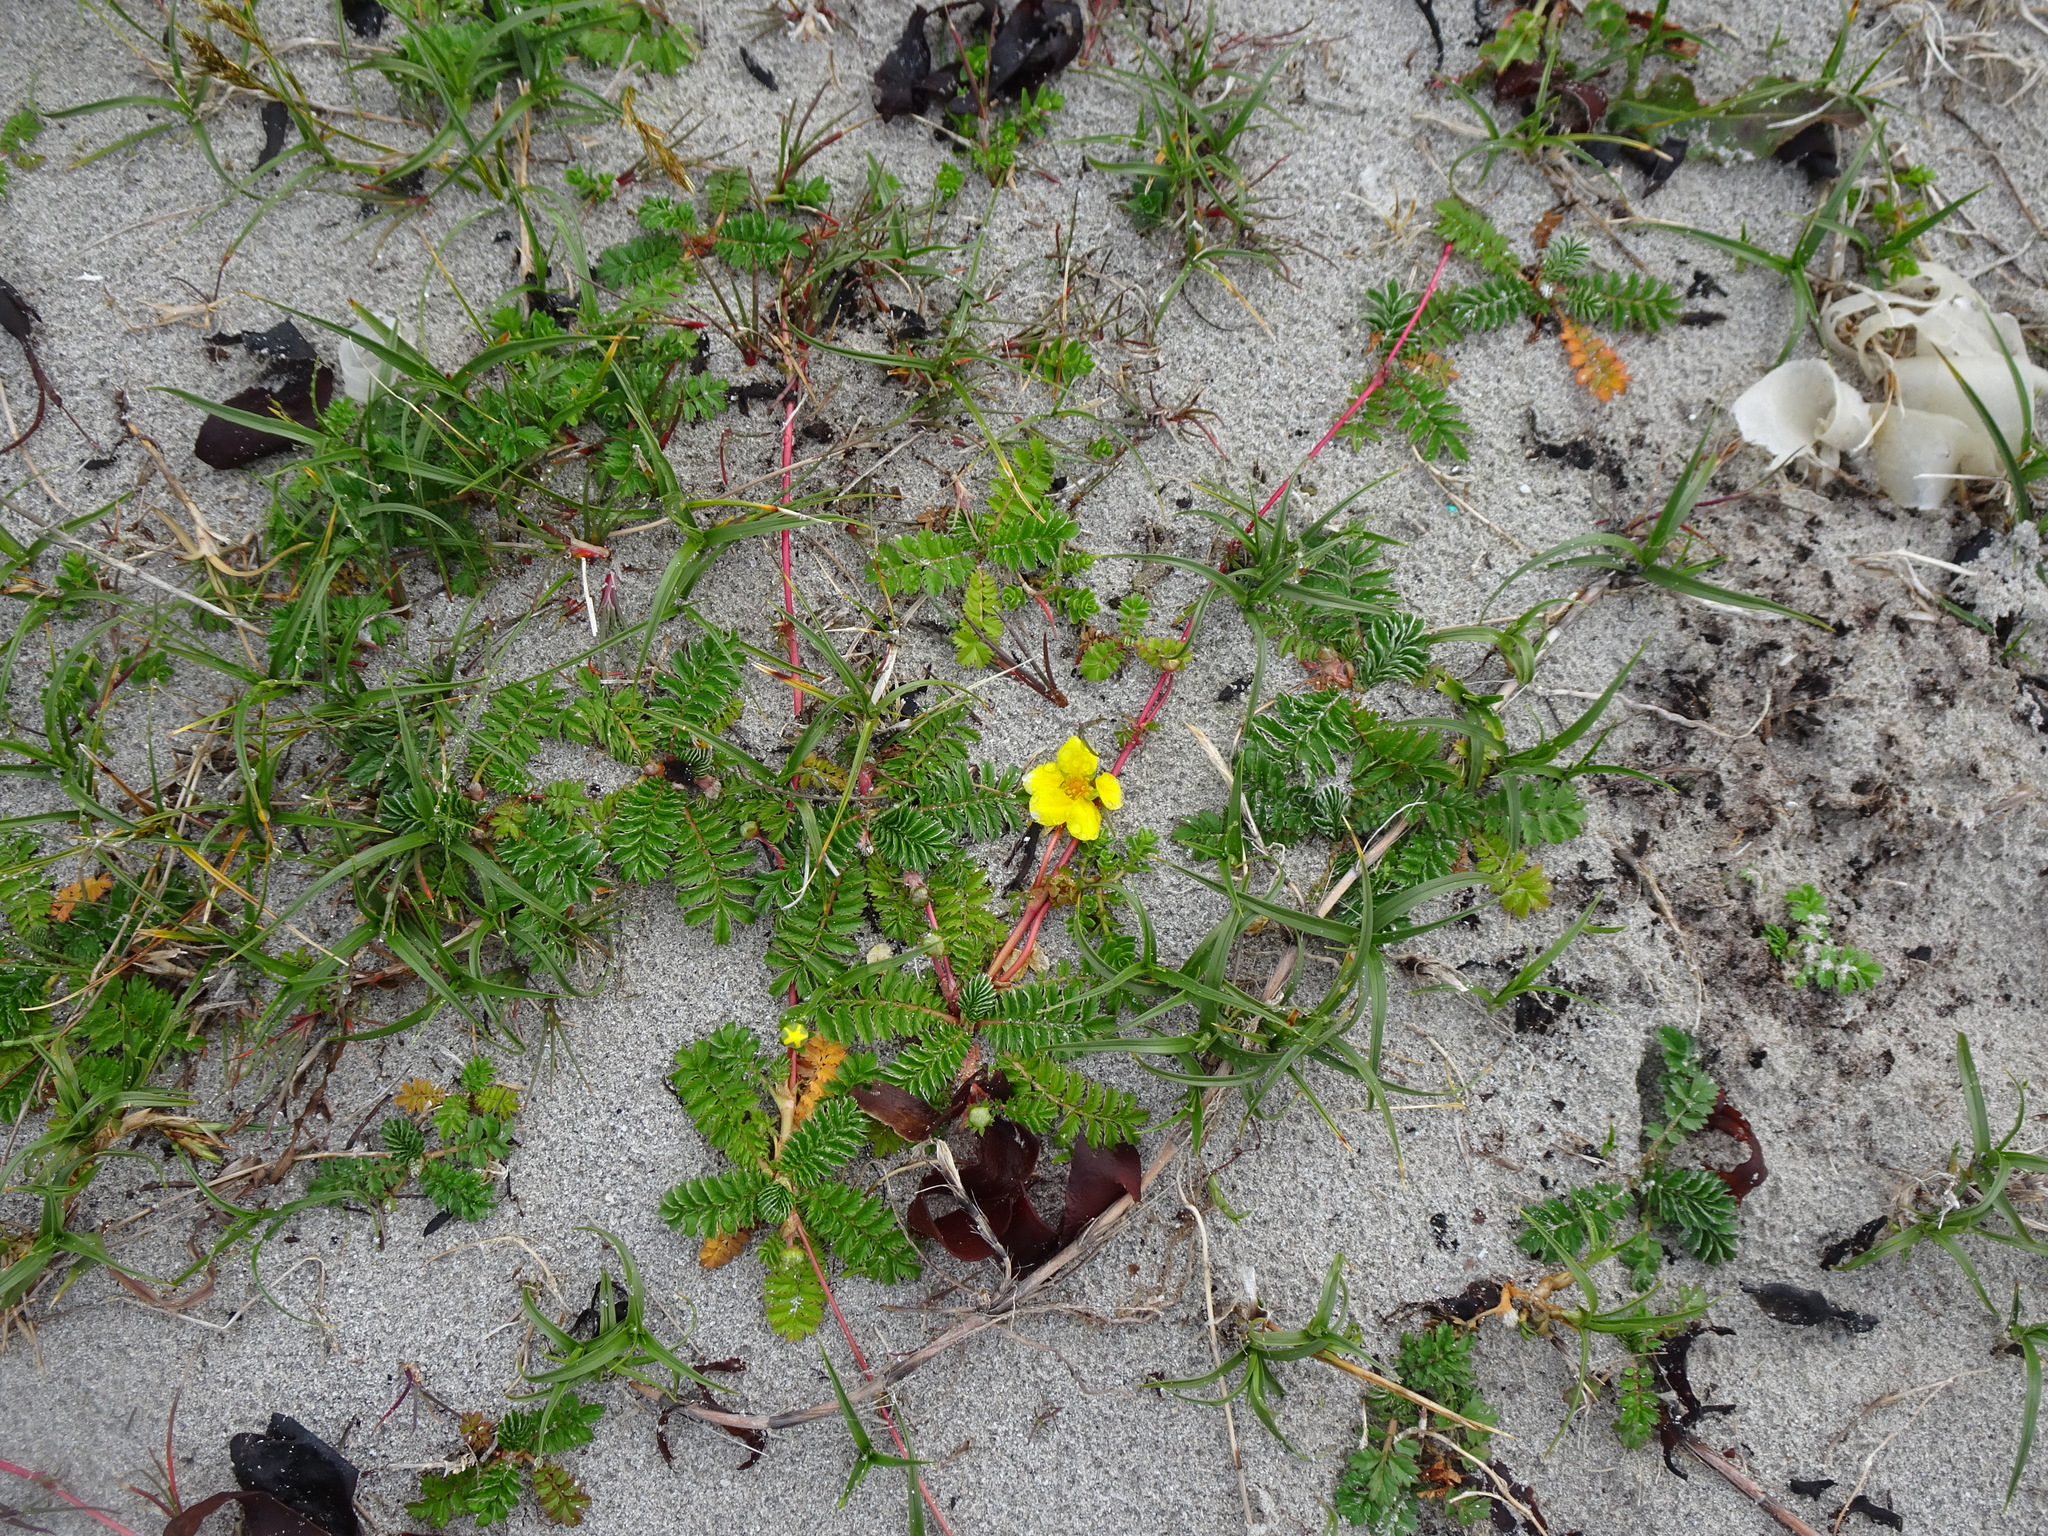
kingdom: Plantae
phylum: Tracheophyta
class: Magnoliopsida
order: Rosales
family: Rosaceae
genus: Argentina
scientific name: Argentina anserina
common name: Common silverweed
